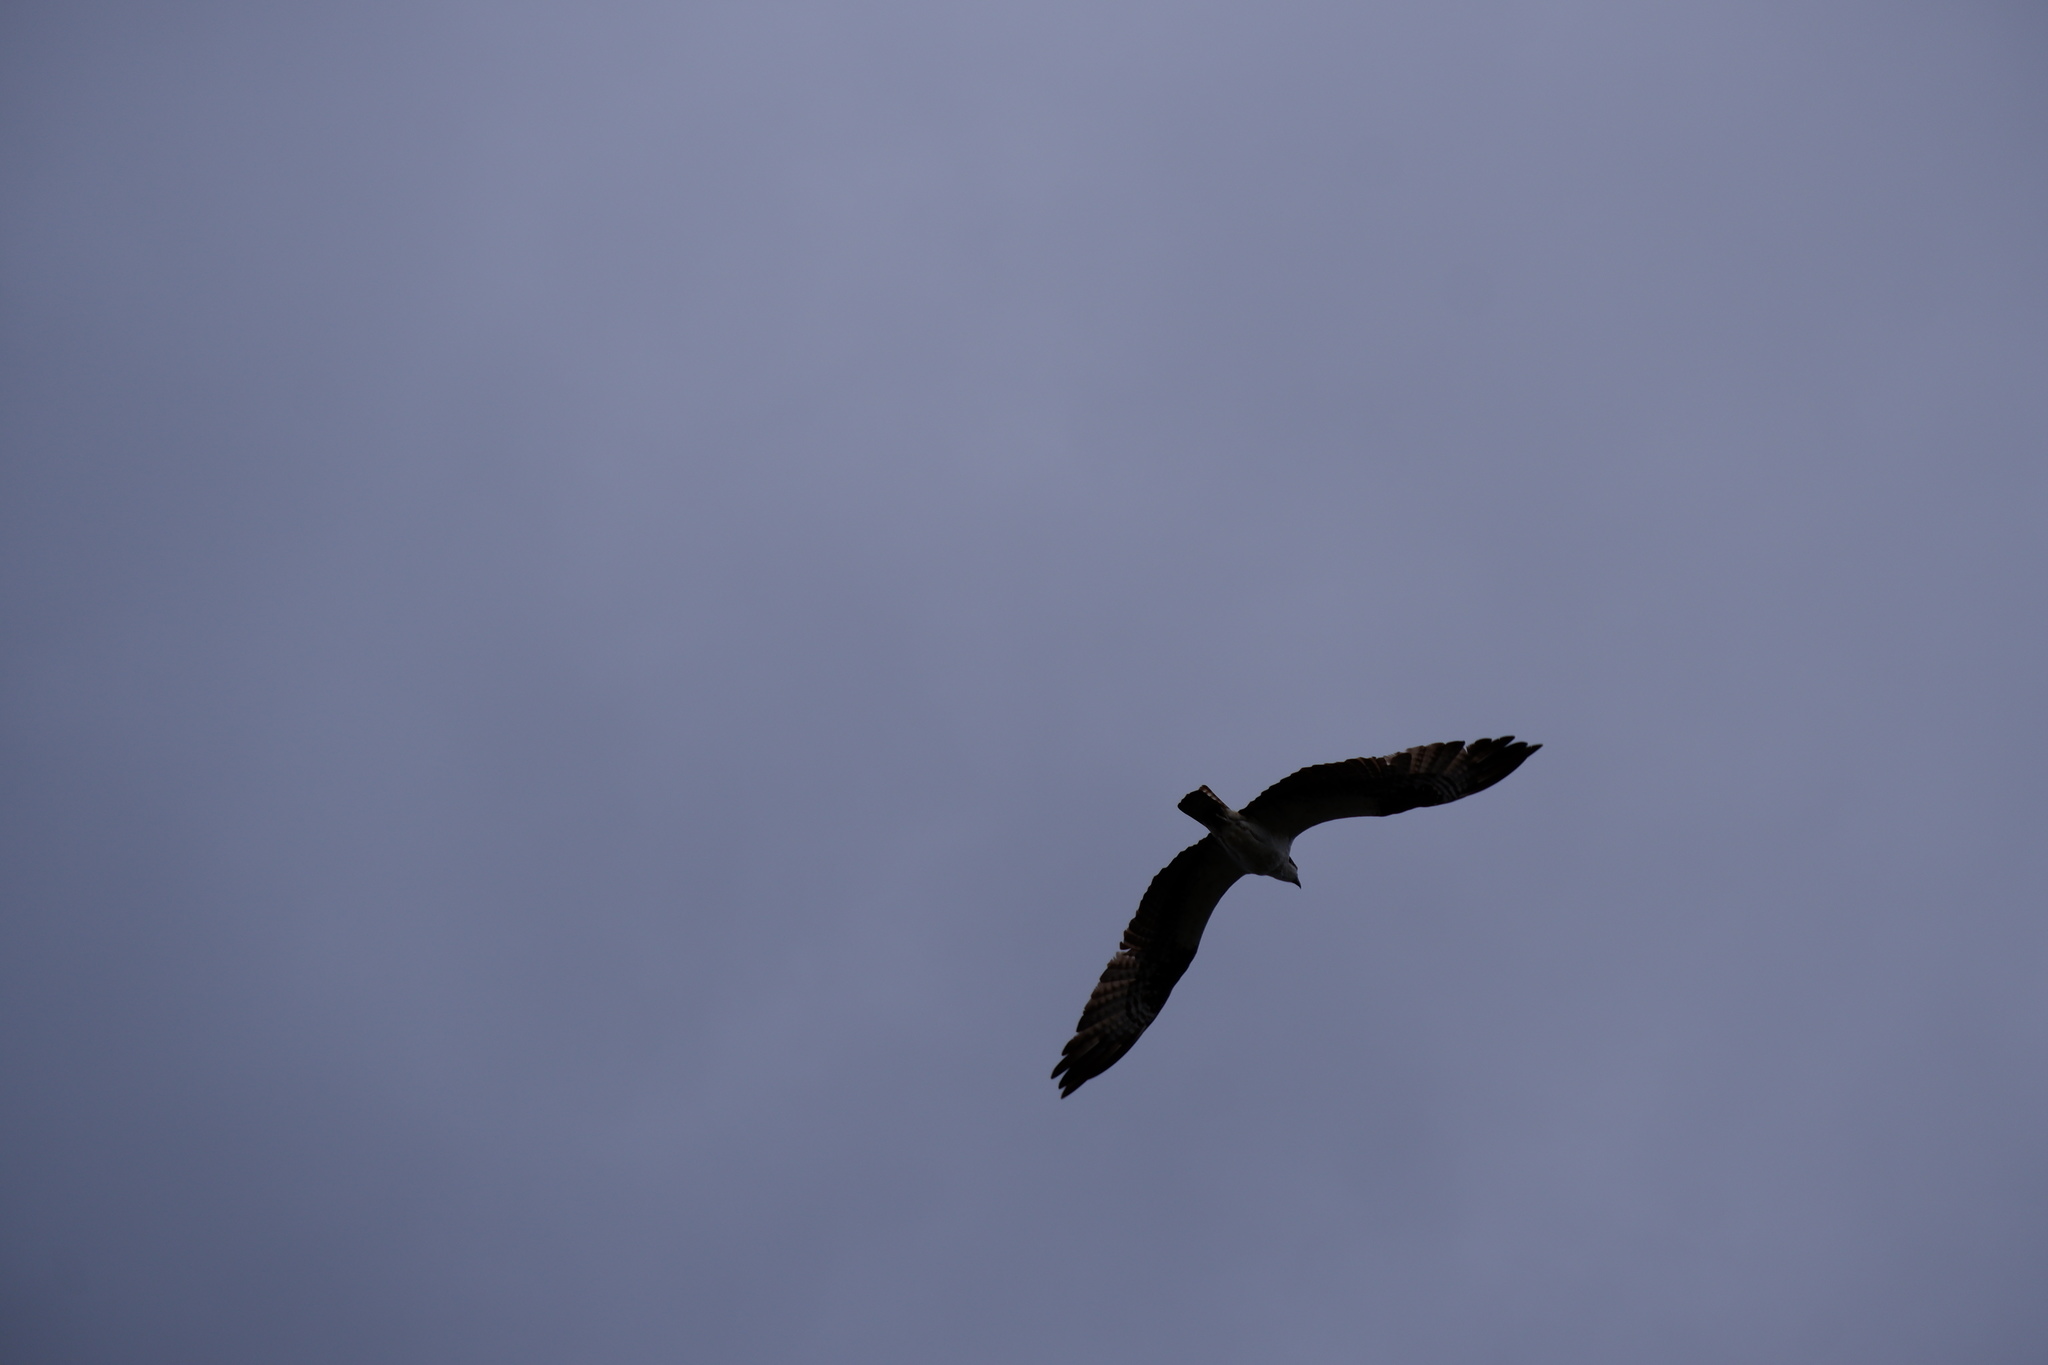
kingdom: Animalia
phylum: Chordata
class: Aves
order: Accipitriformes
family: Pandionidae
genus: Pandion
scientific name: Pandion haliaetus
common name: Osprey
